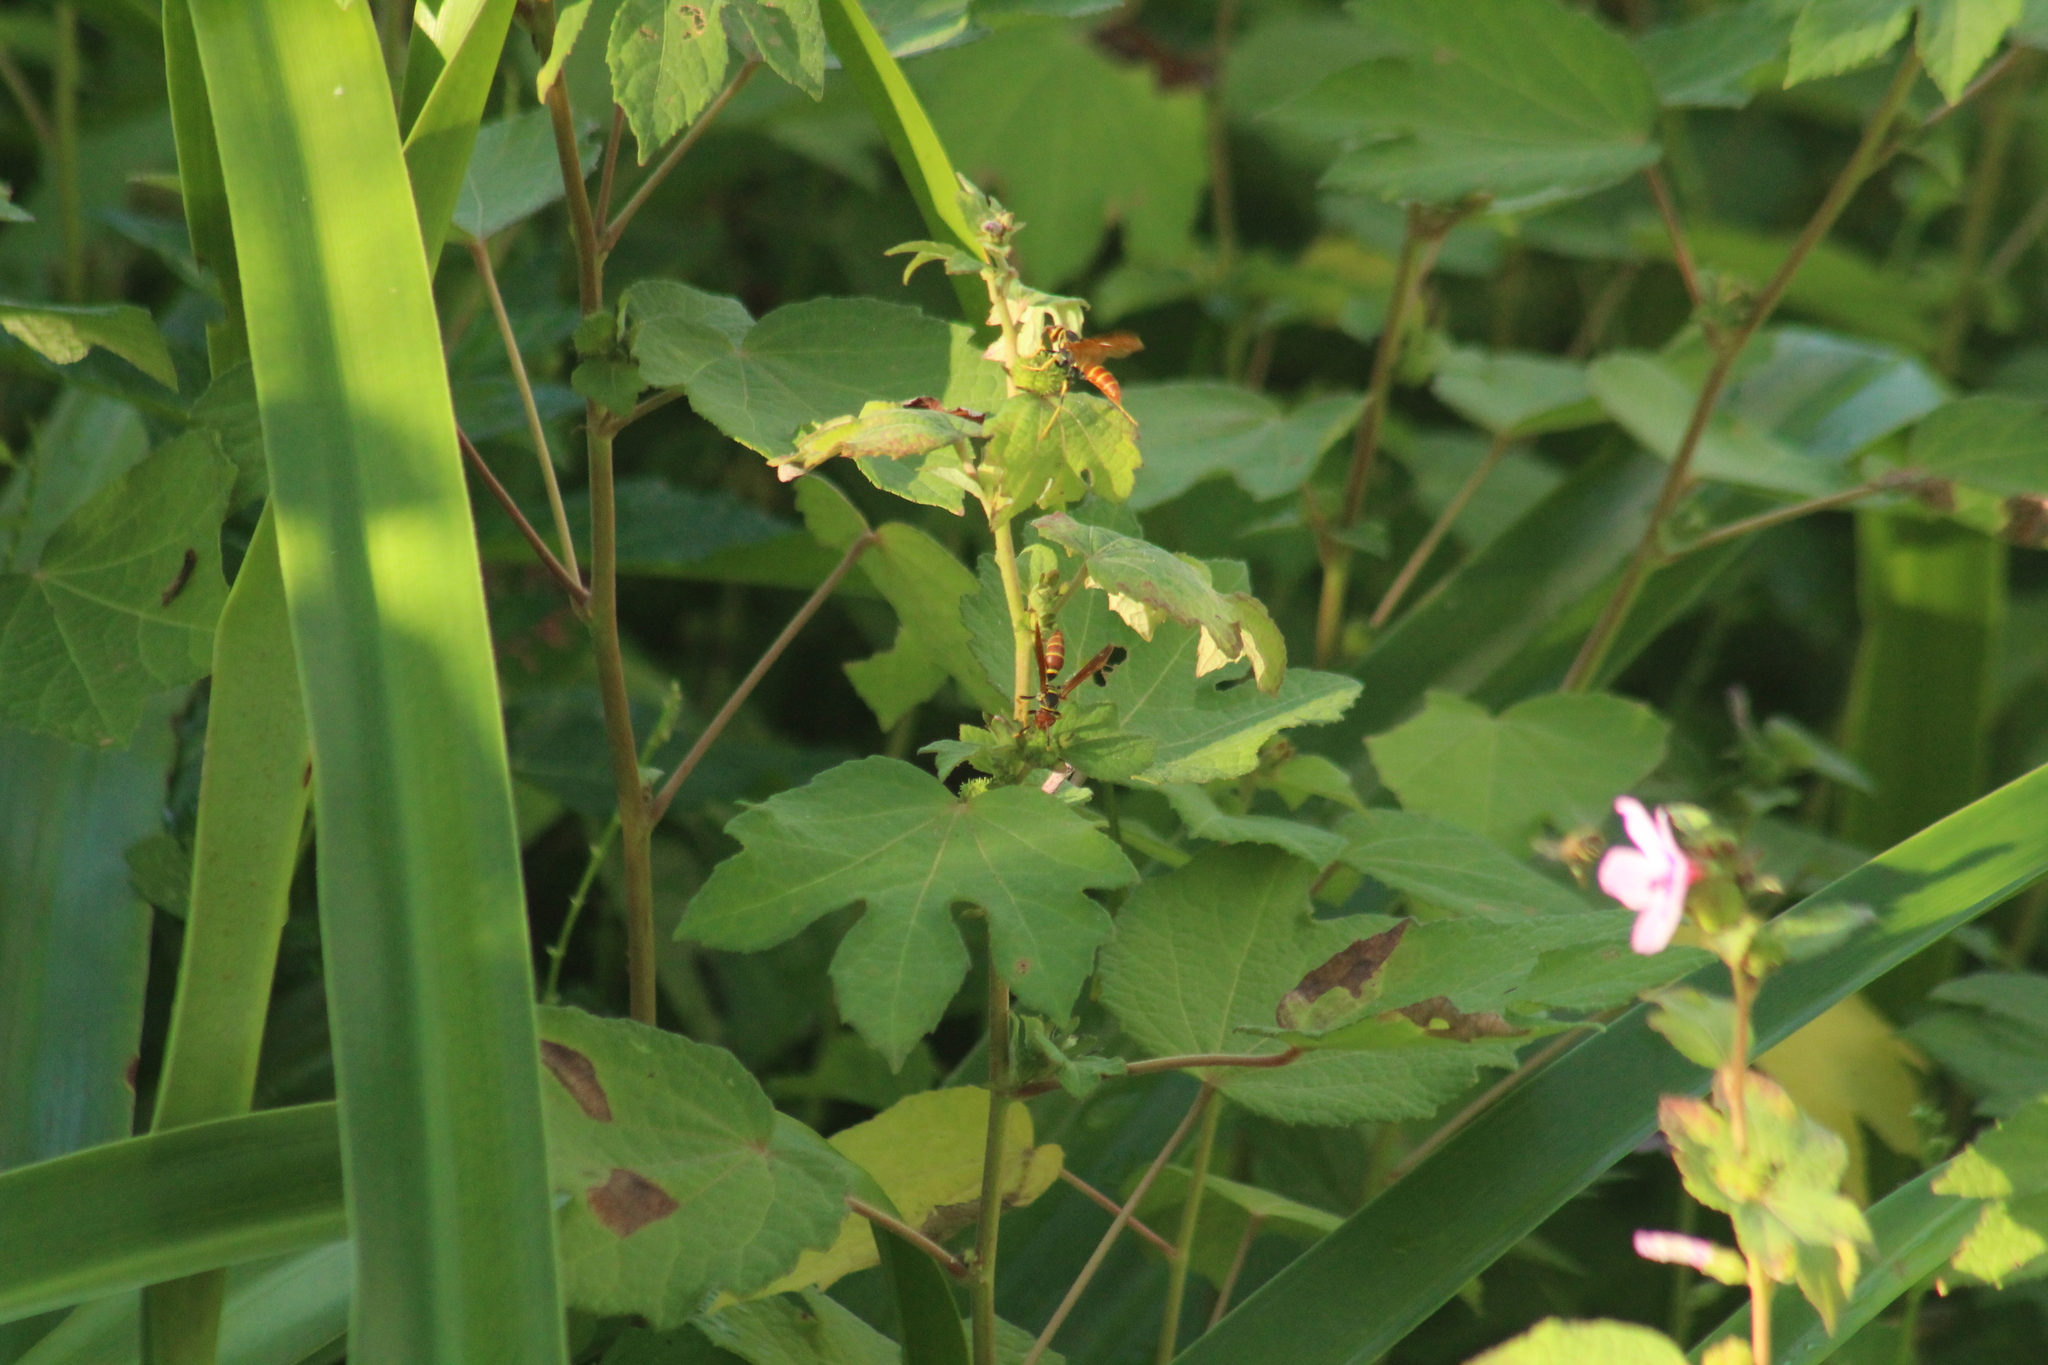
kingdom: Animalia
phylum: Arthropoda
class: Insecta
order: Hymenoptera
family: Eumenidae
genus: Polistes
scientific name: Polistes crinitus
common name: Jack spaniard
